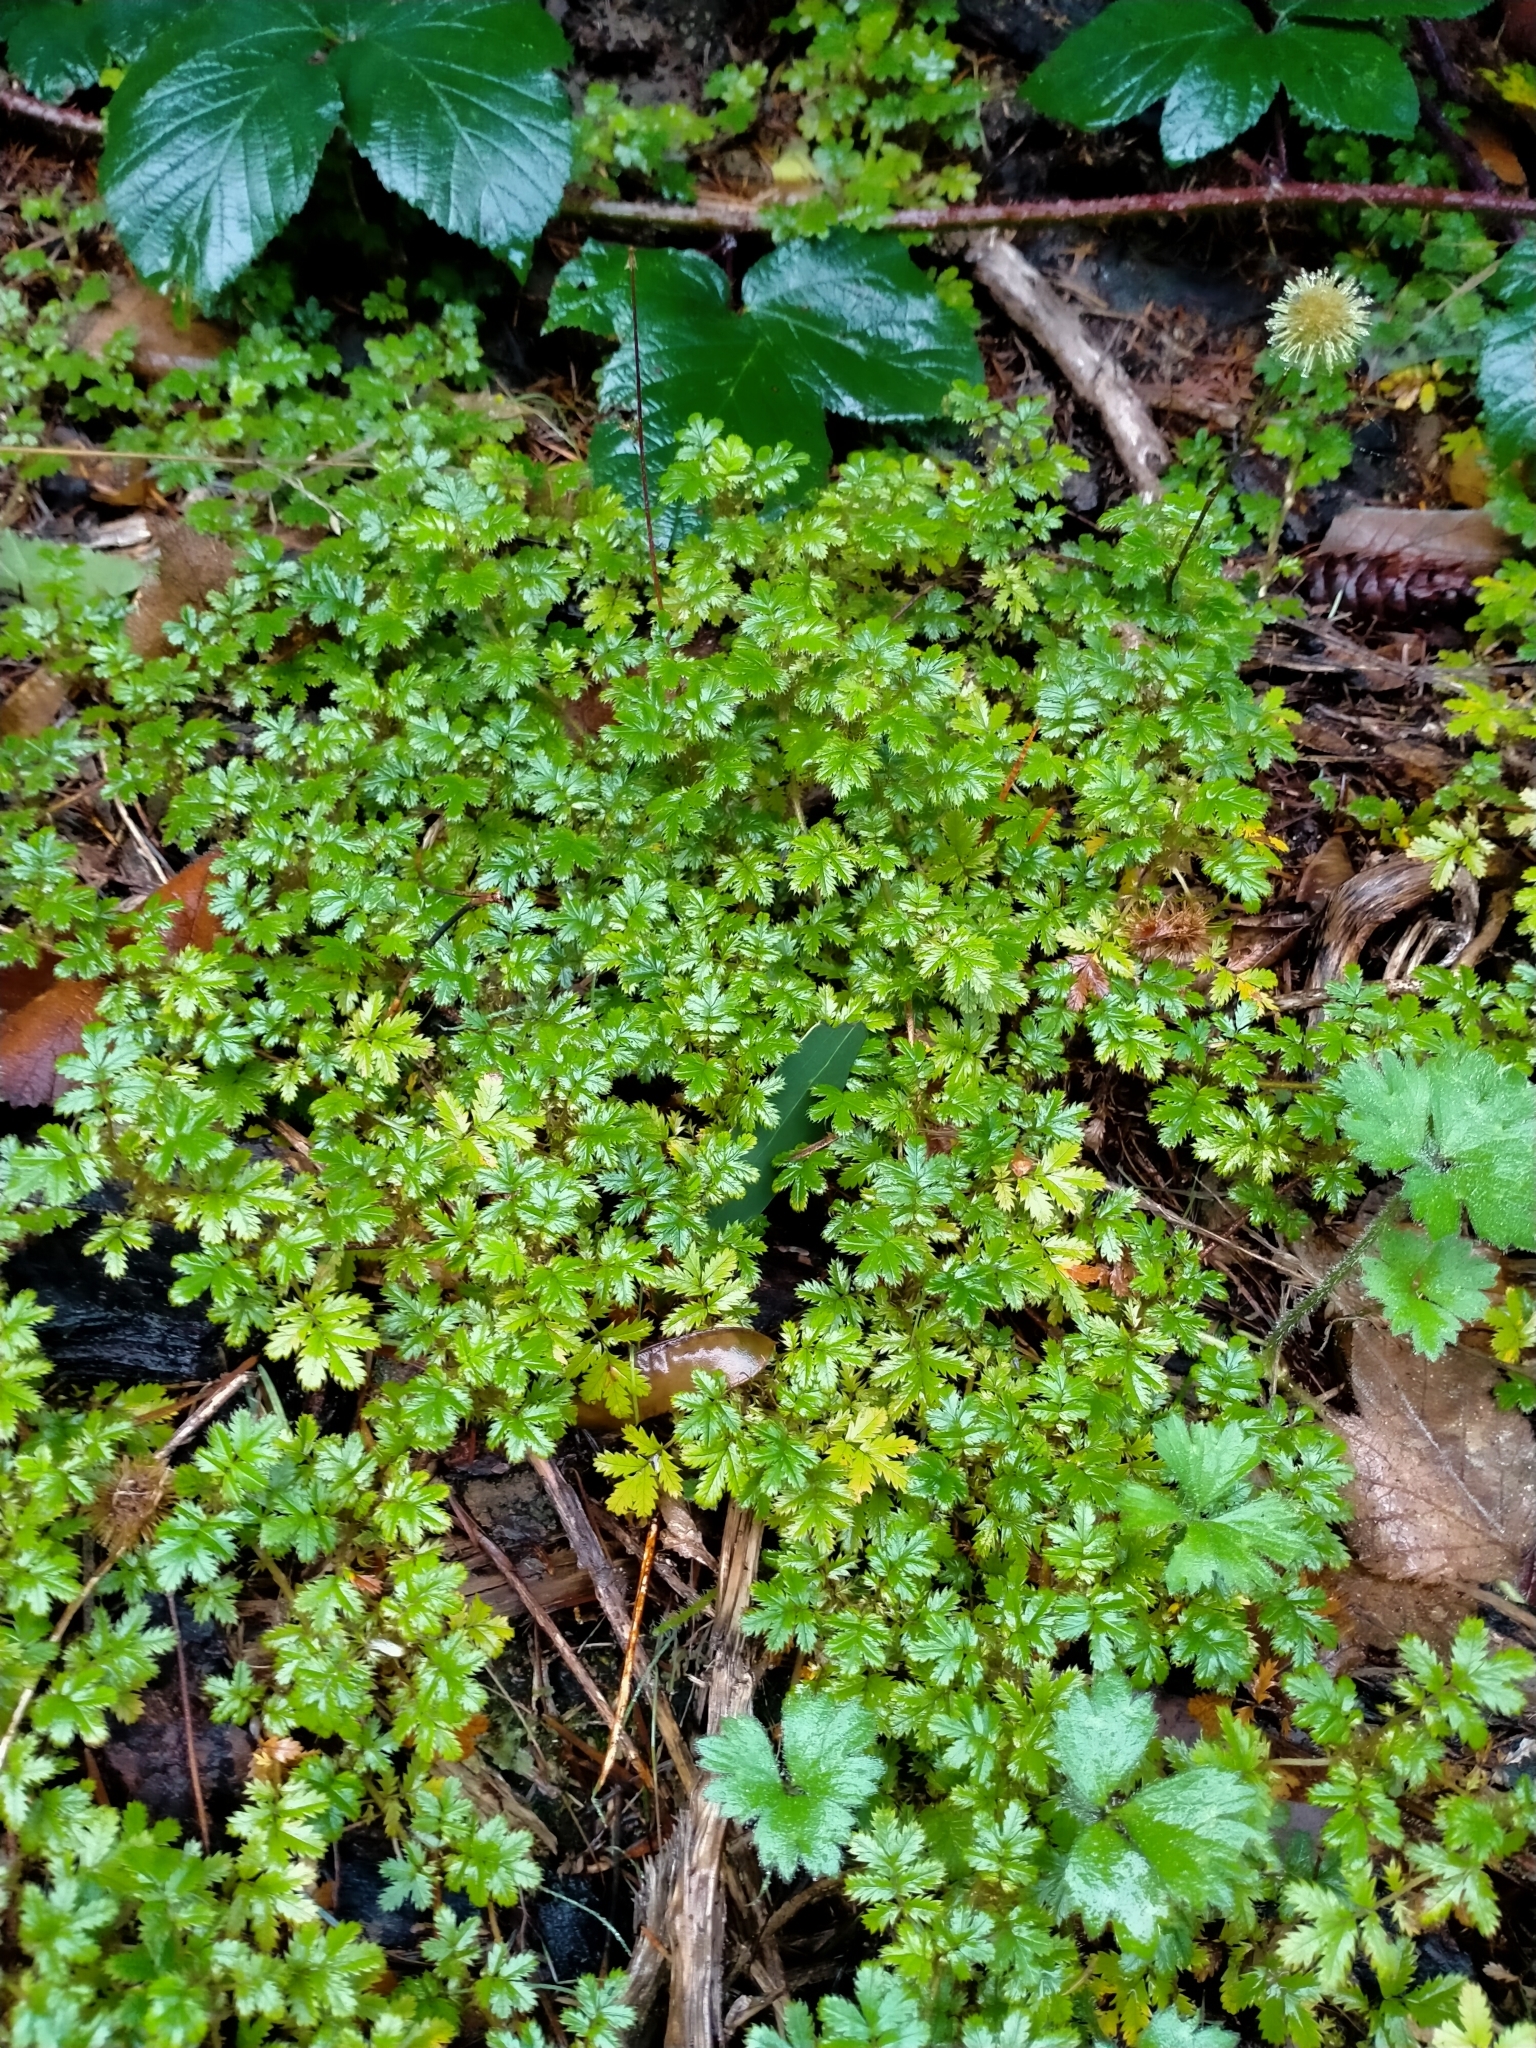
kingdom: Plantae
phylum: Tracheophyta
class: Magnoliopsida
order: Rosales
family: Rosaceae
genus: Acaena
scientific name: Acaena anserinifolia
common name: Bronze pirri-pirri-bur
